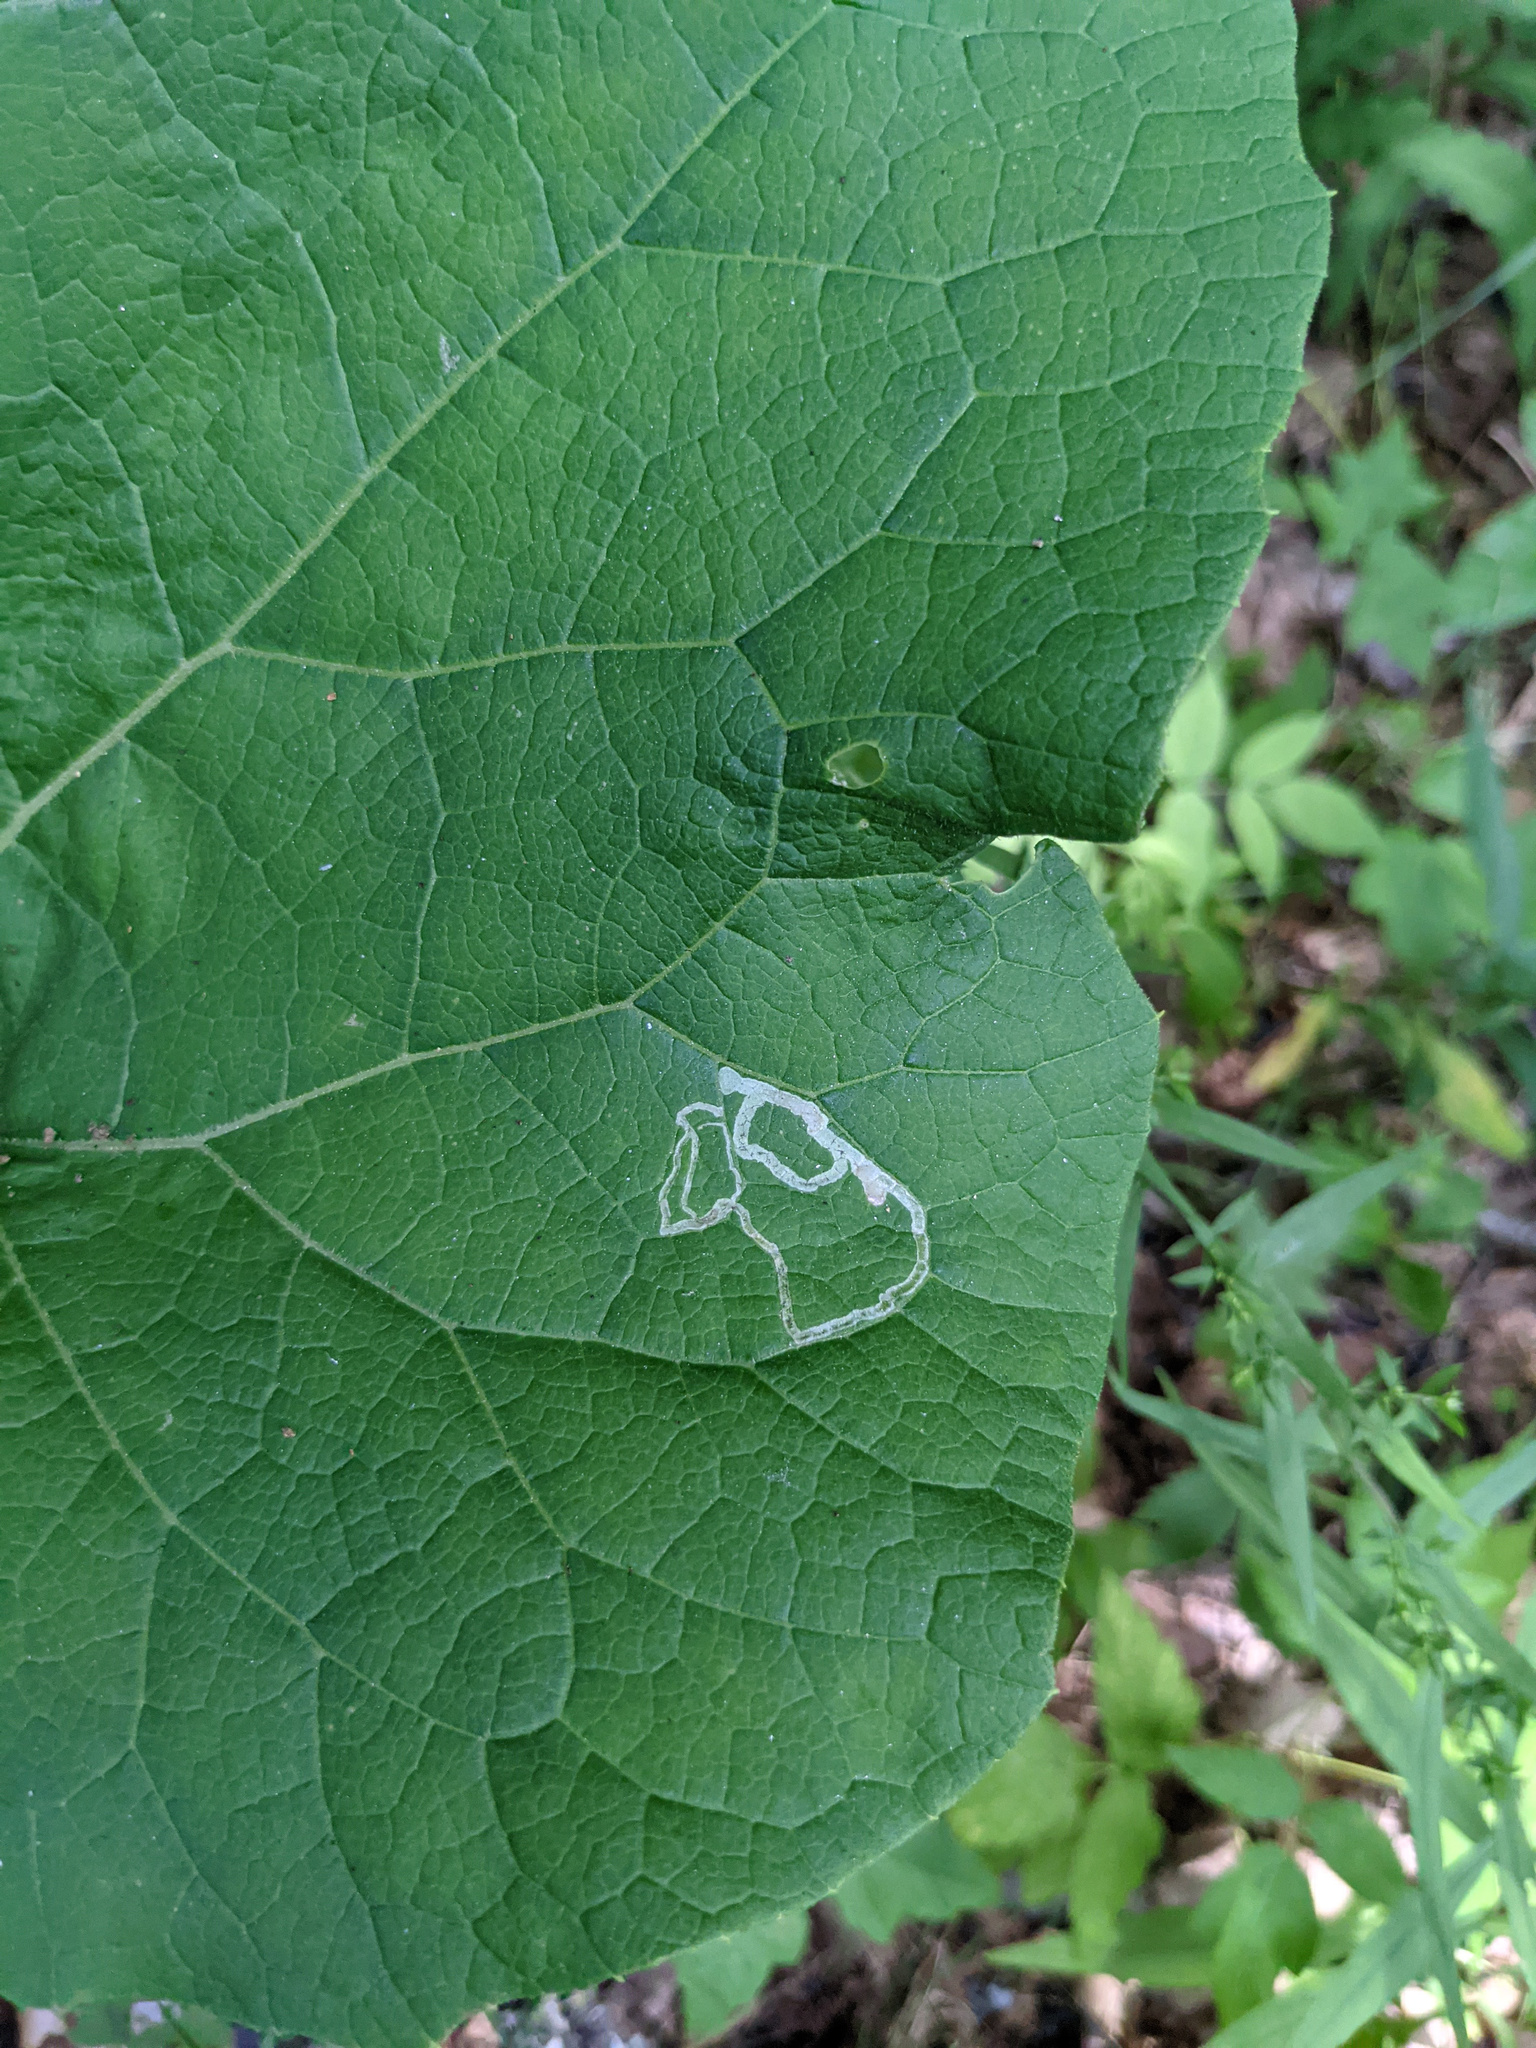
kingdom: Animalia
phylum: Arthropoda
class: Insecta
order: Diptera
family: Agromyzidae
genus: Liriomyza
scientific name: Liriomyza arctii
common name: Burdock leafminer
